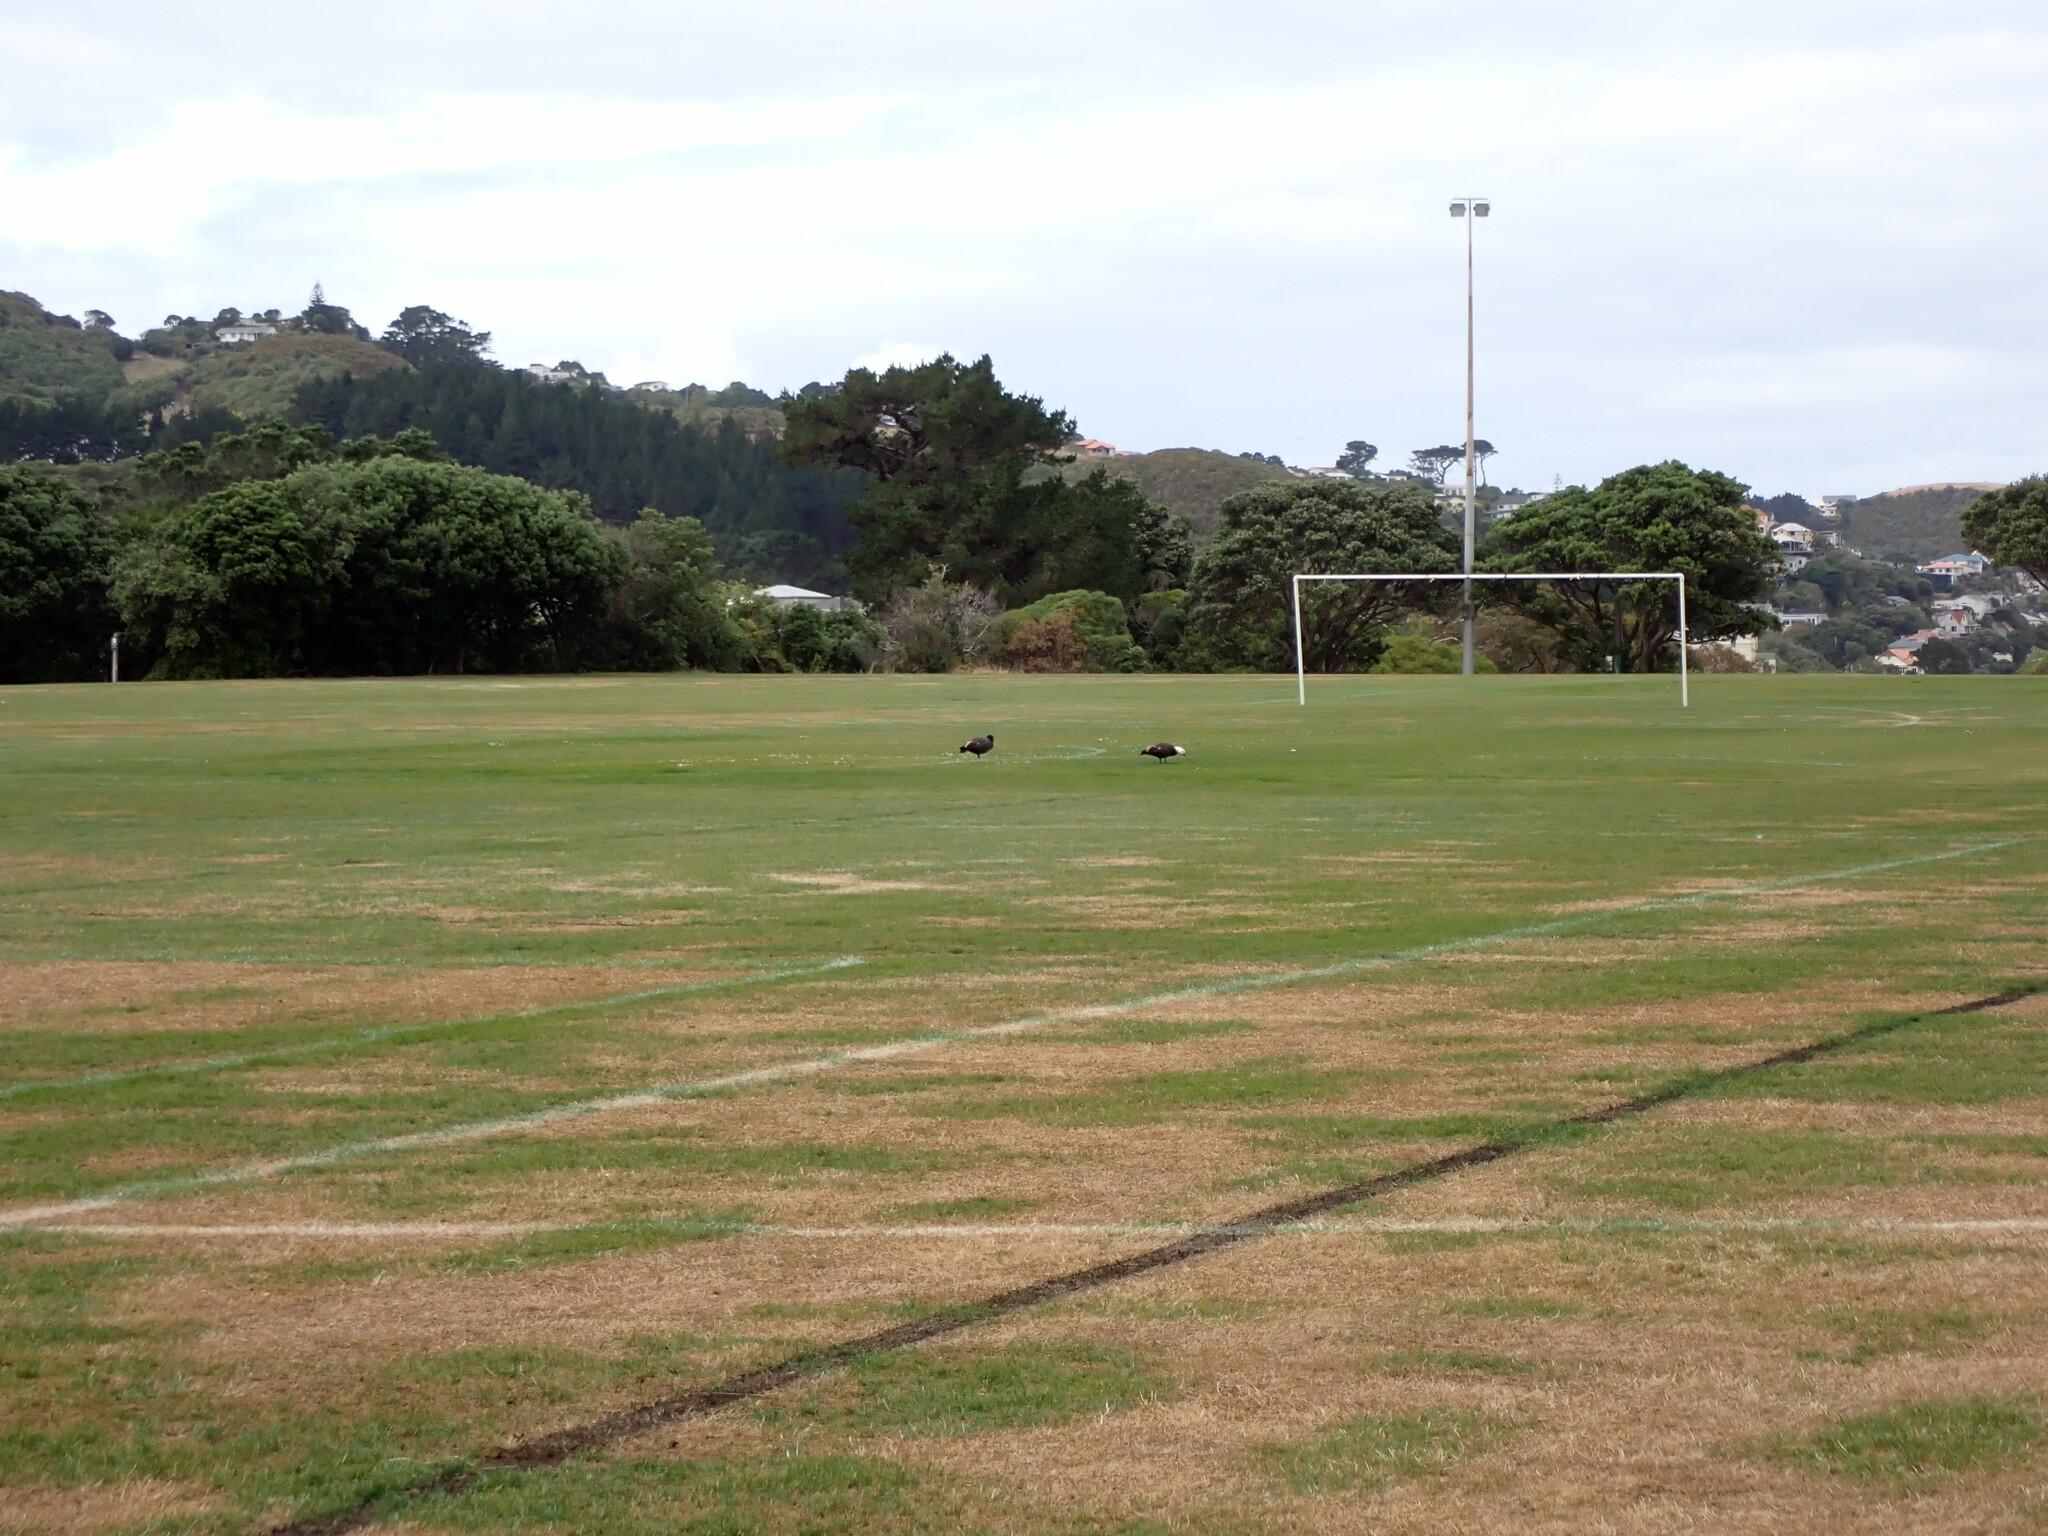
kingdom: Animalia
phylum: Chordata
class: Aves
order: Anseriformes
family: Anatidae
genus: Tadorna
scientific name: Tadorna variegata
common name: Paradise shelduck
